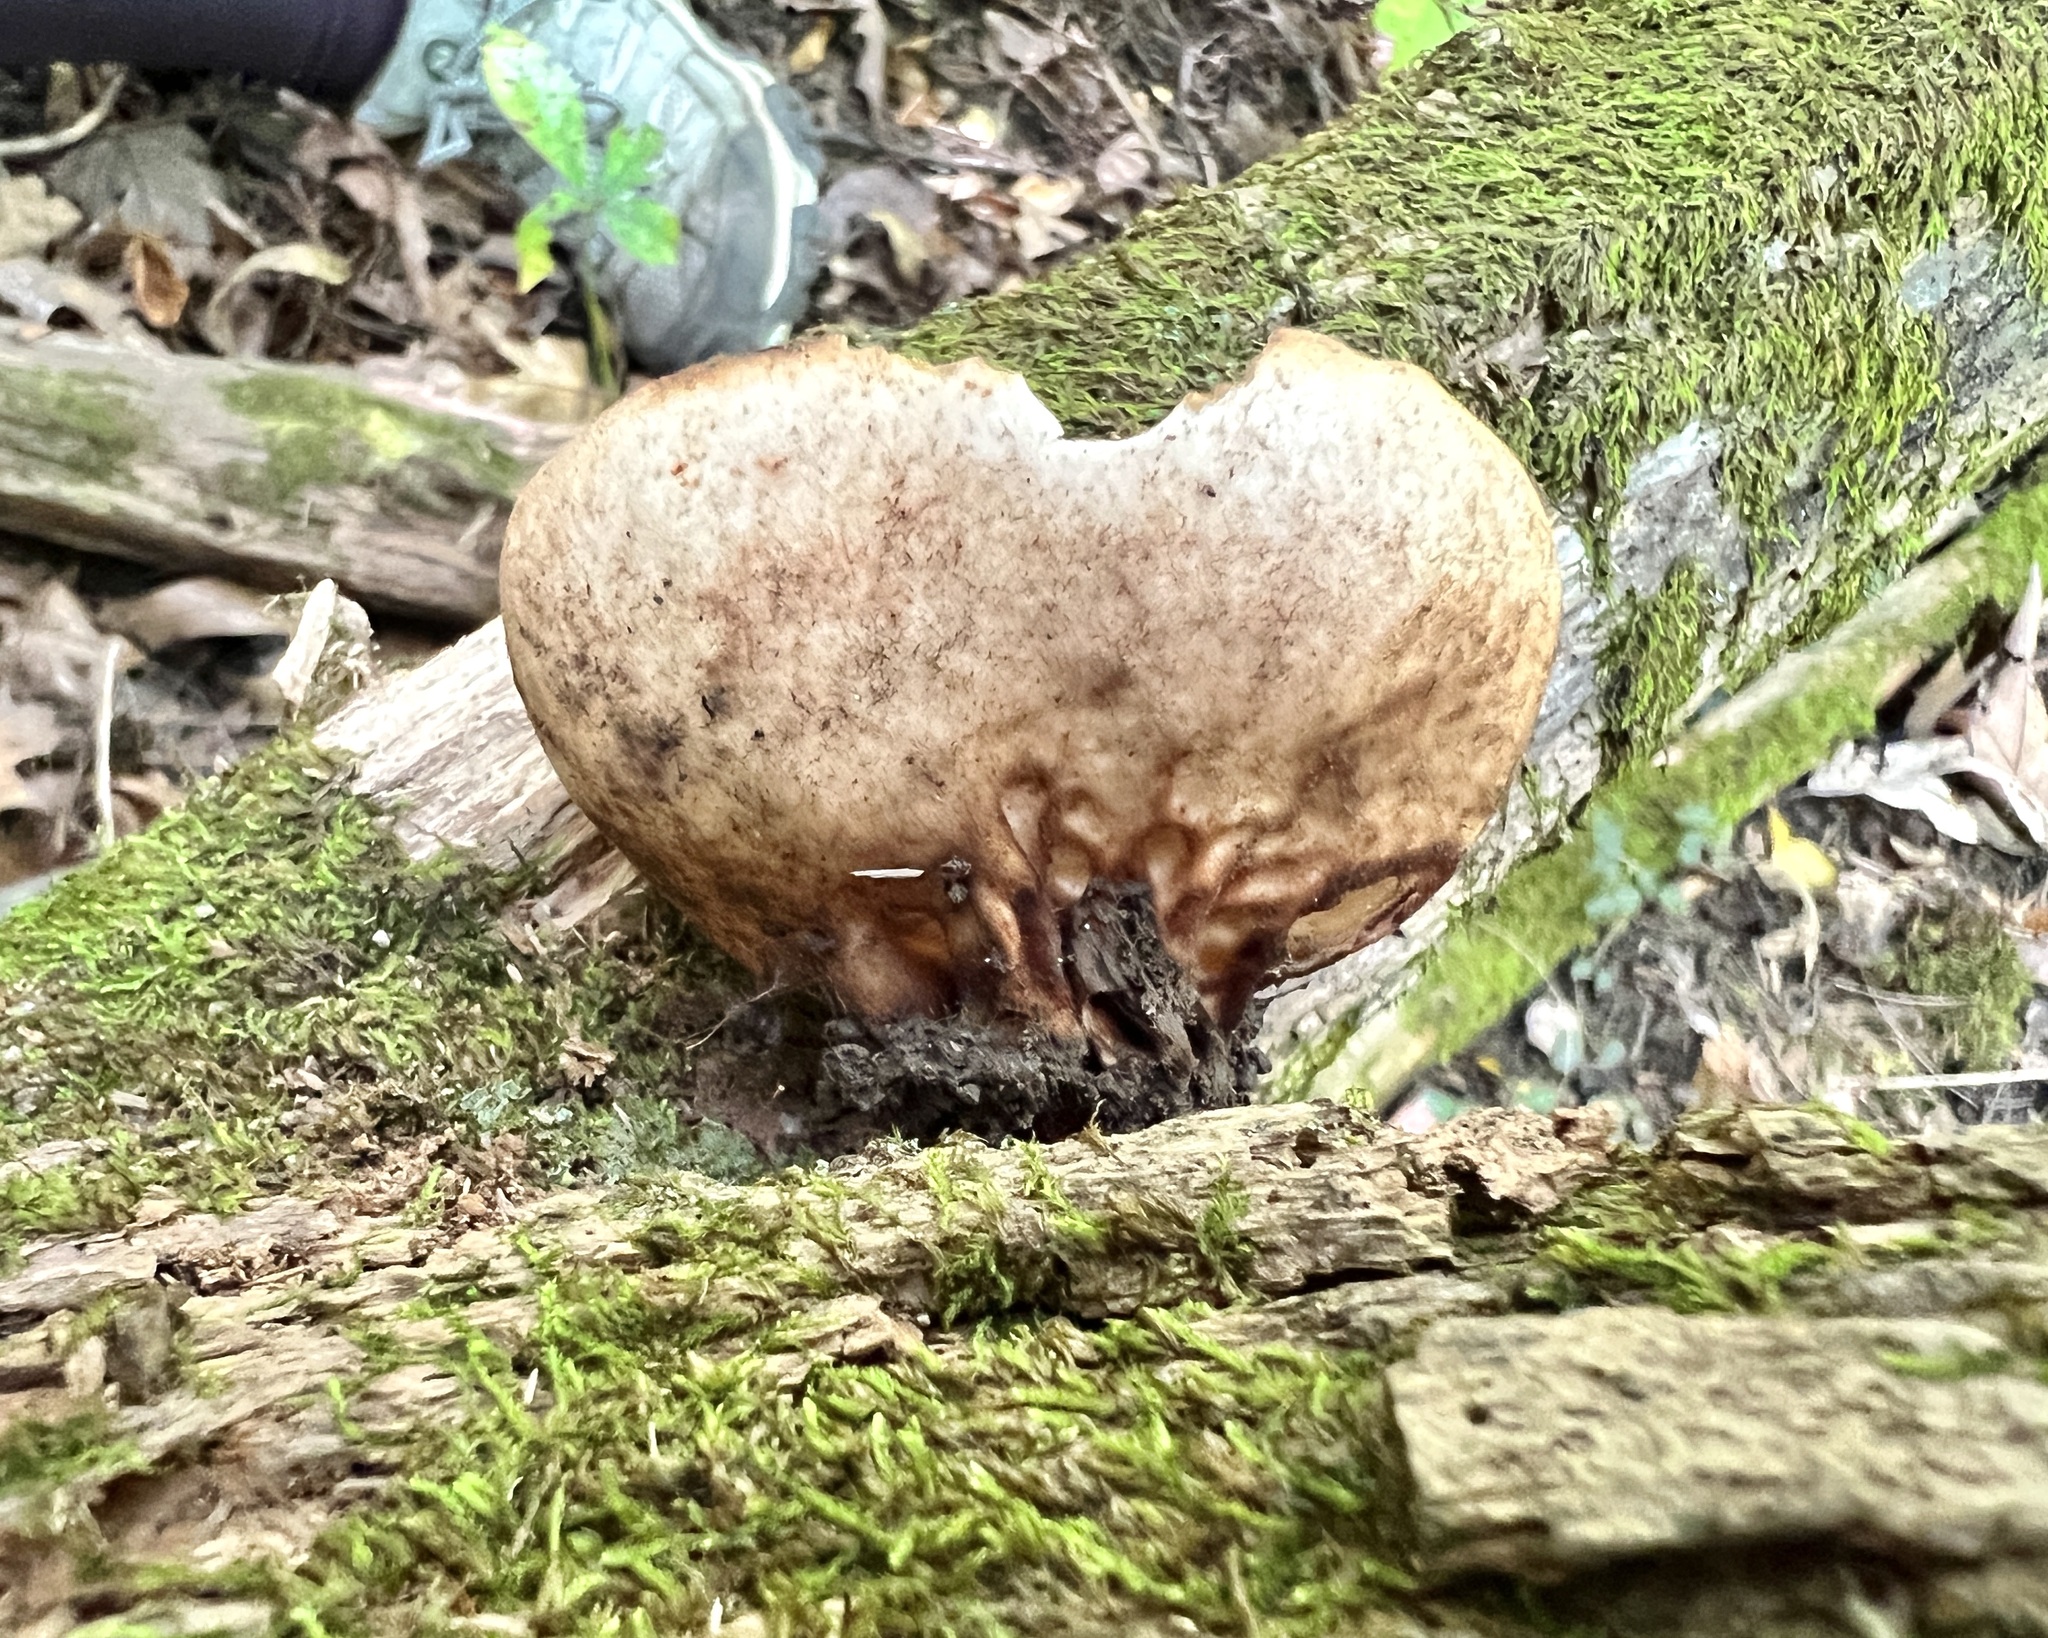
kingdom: Fungi
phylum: Ascomycota
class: Pezizomycetes
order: Pezizales
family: Pyronemataceae
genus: Jafnea
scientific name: Jafnea semitosta
